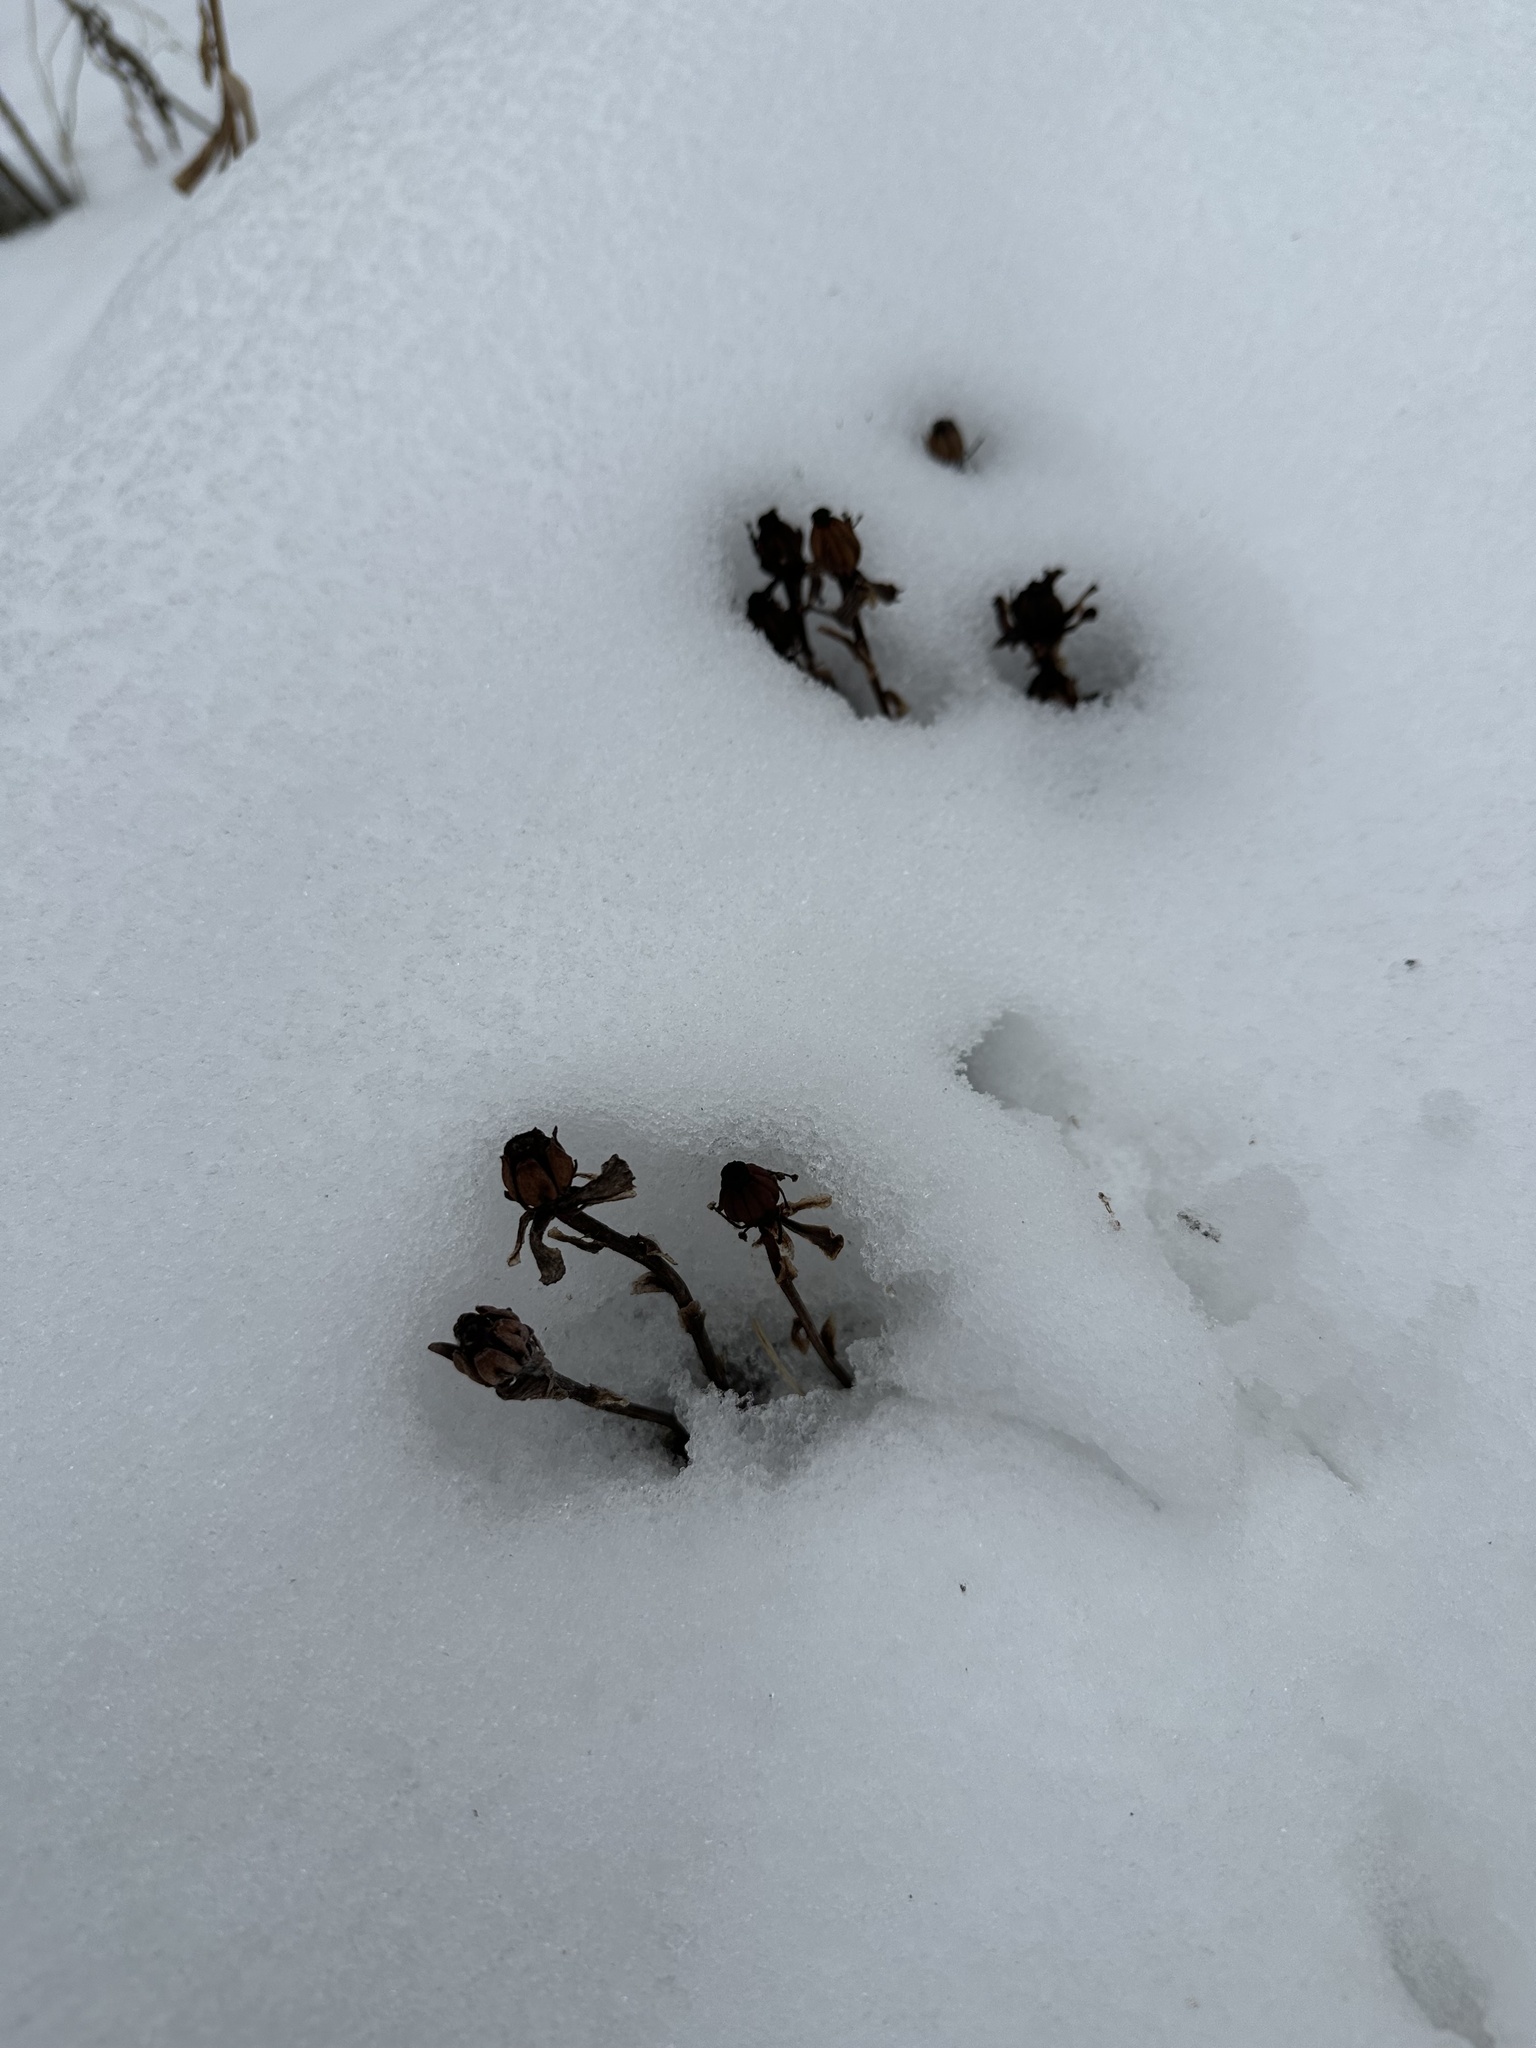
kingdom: Plantae
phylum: Tracheophyta
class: Magnoliopsida
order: Ericales
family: Ericaceae
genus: Monotropa
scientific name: Monotropa uniflora
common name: Convulsion root
